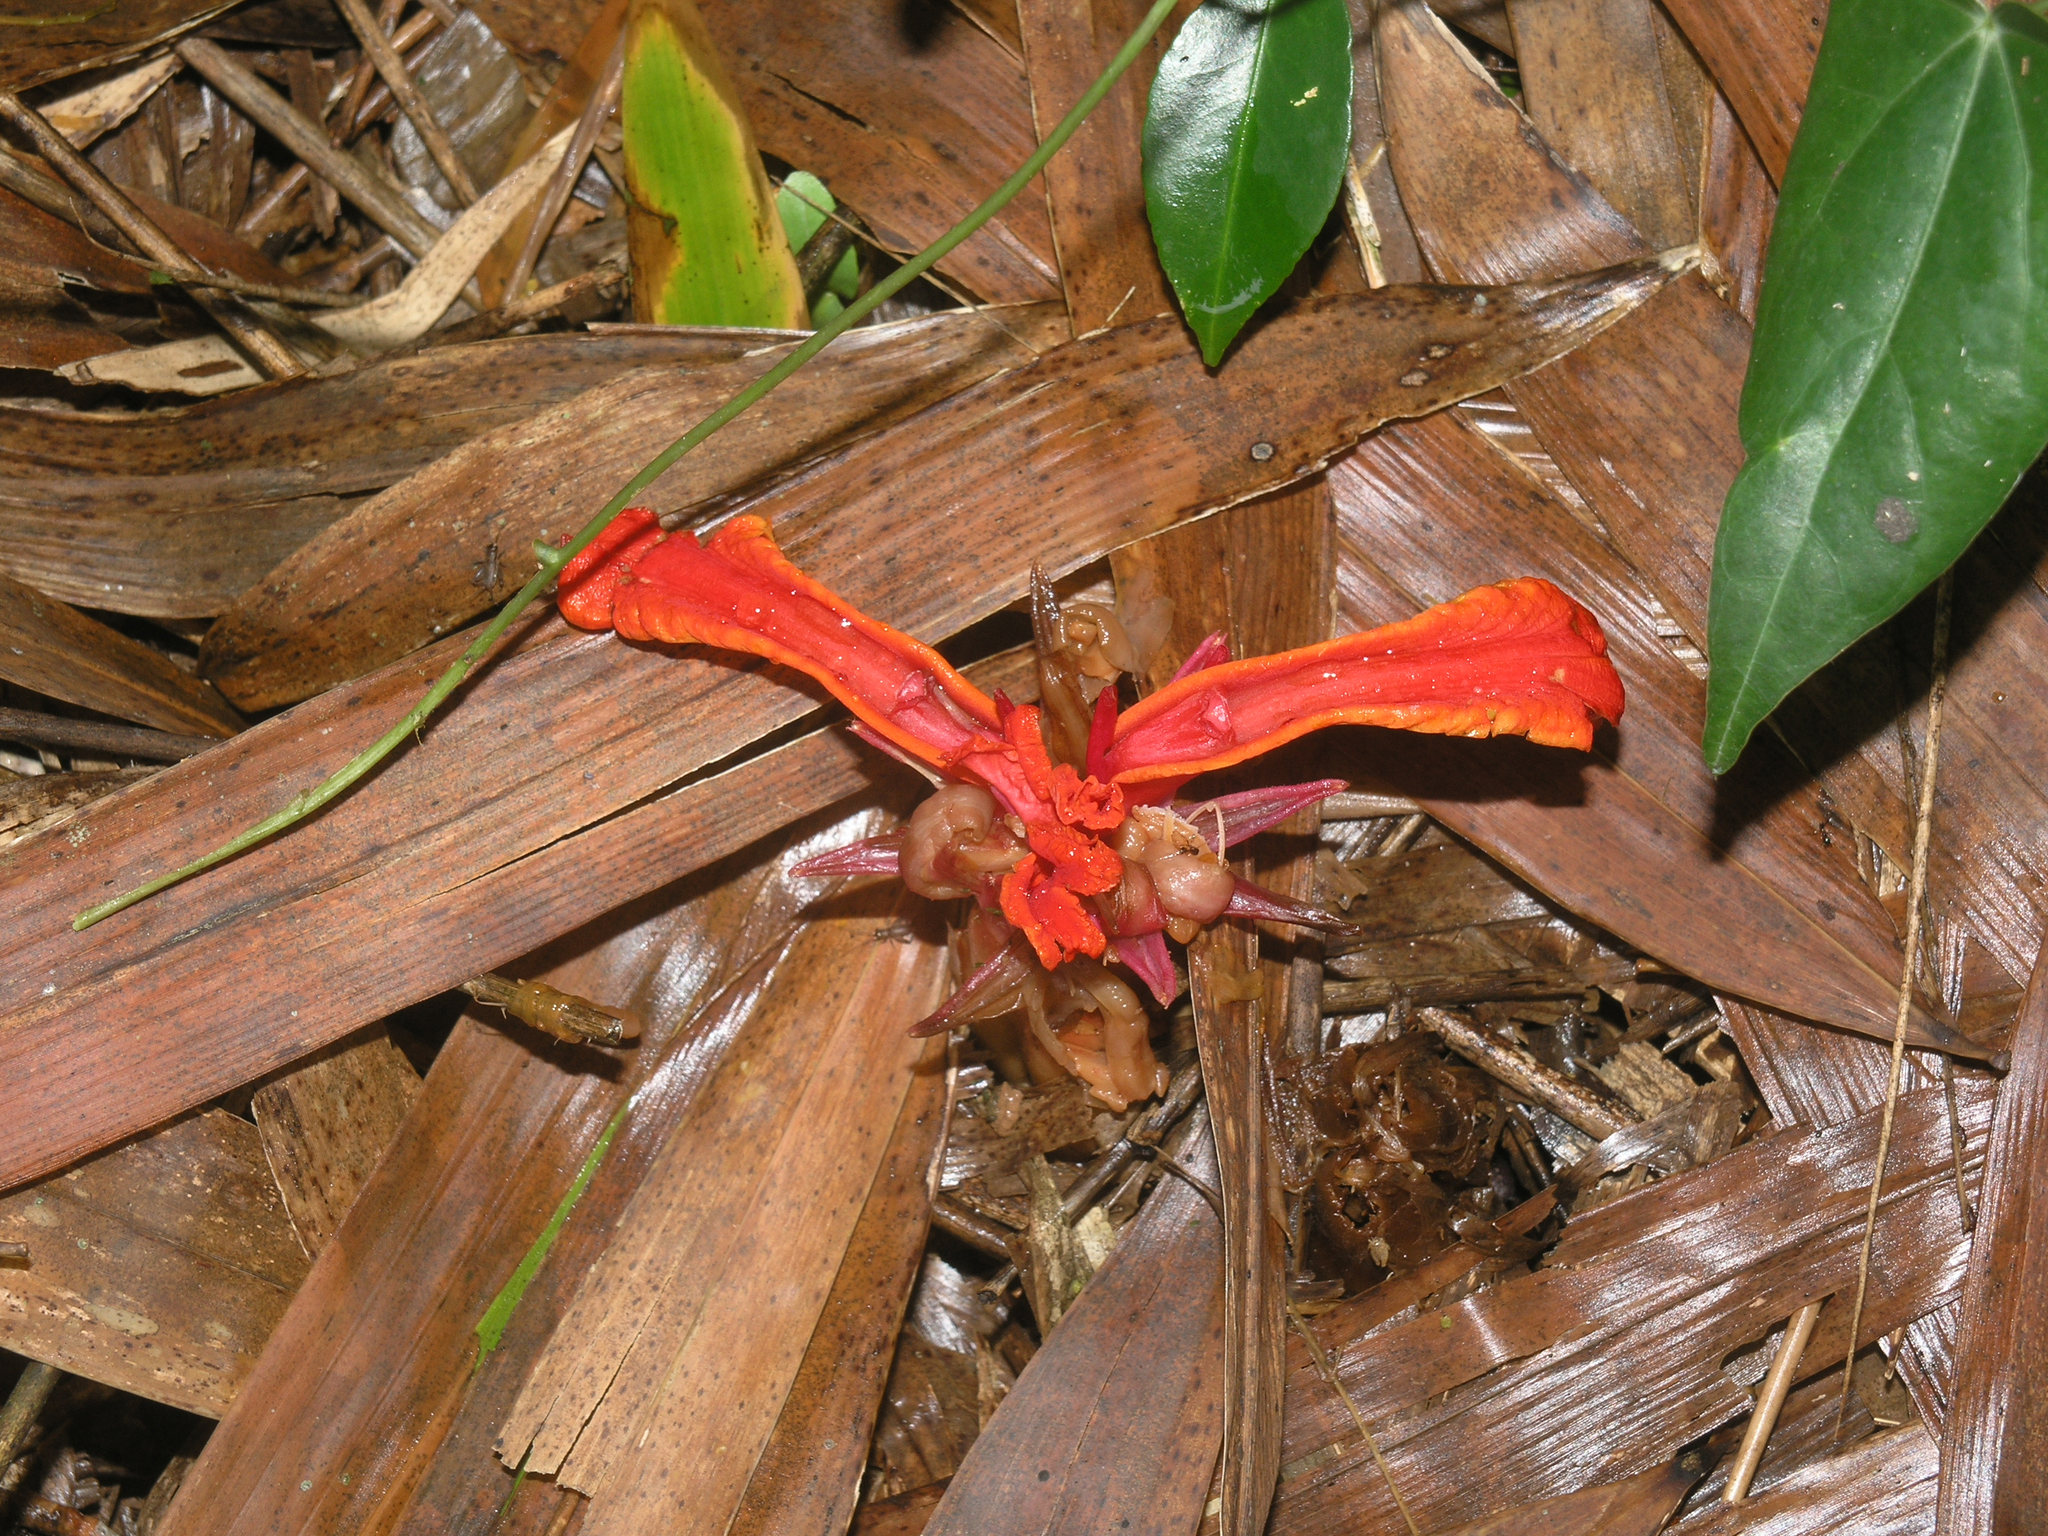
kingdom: Plantae
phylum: Tracheophyta
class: Liliopsida
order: Zingiberales
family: Zingiberaceae
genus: Etlingera
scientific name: Etlingera megalocheilos
